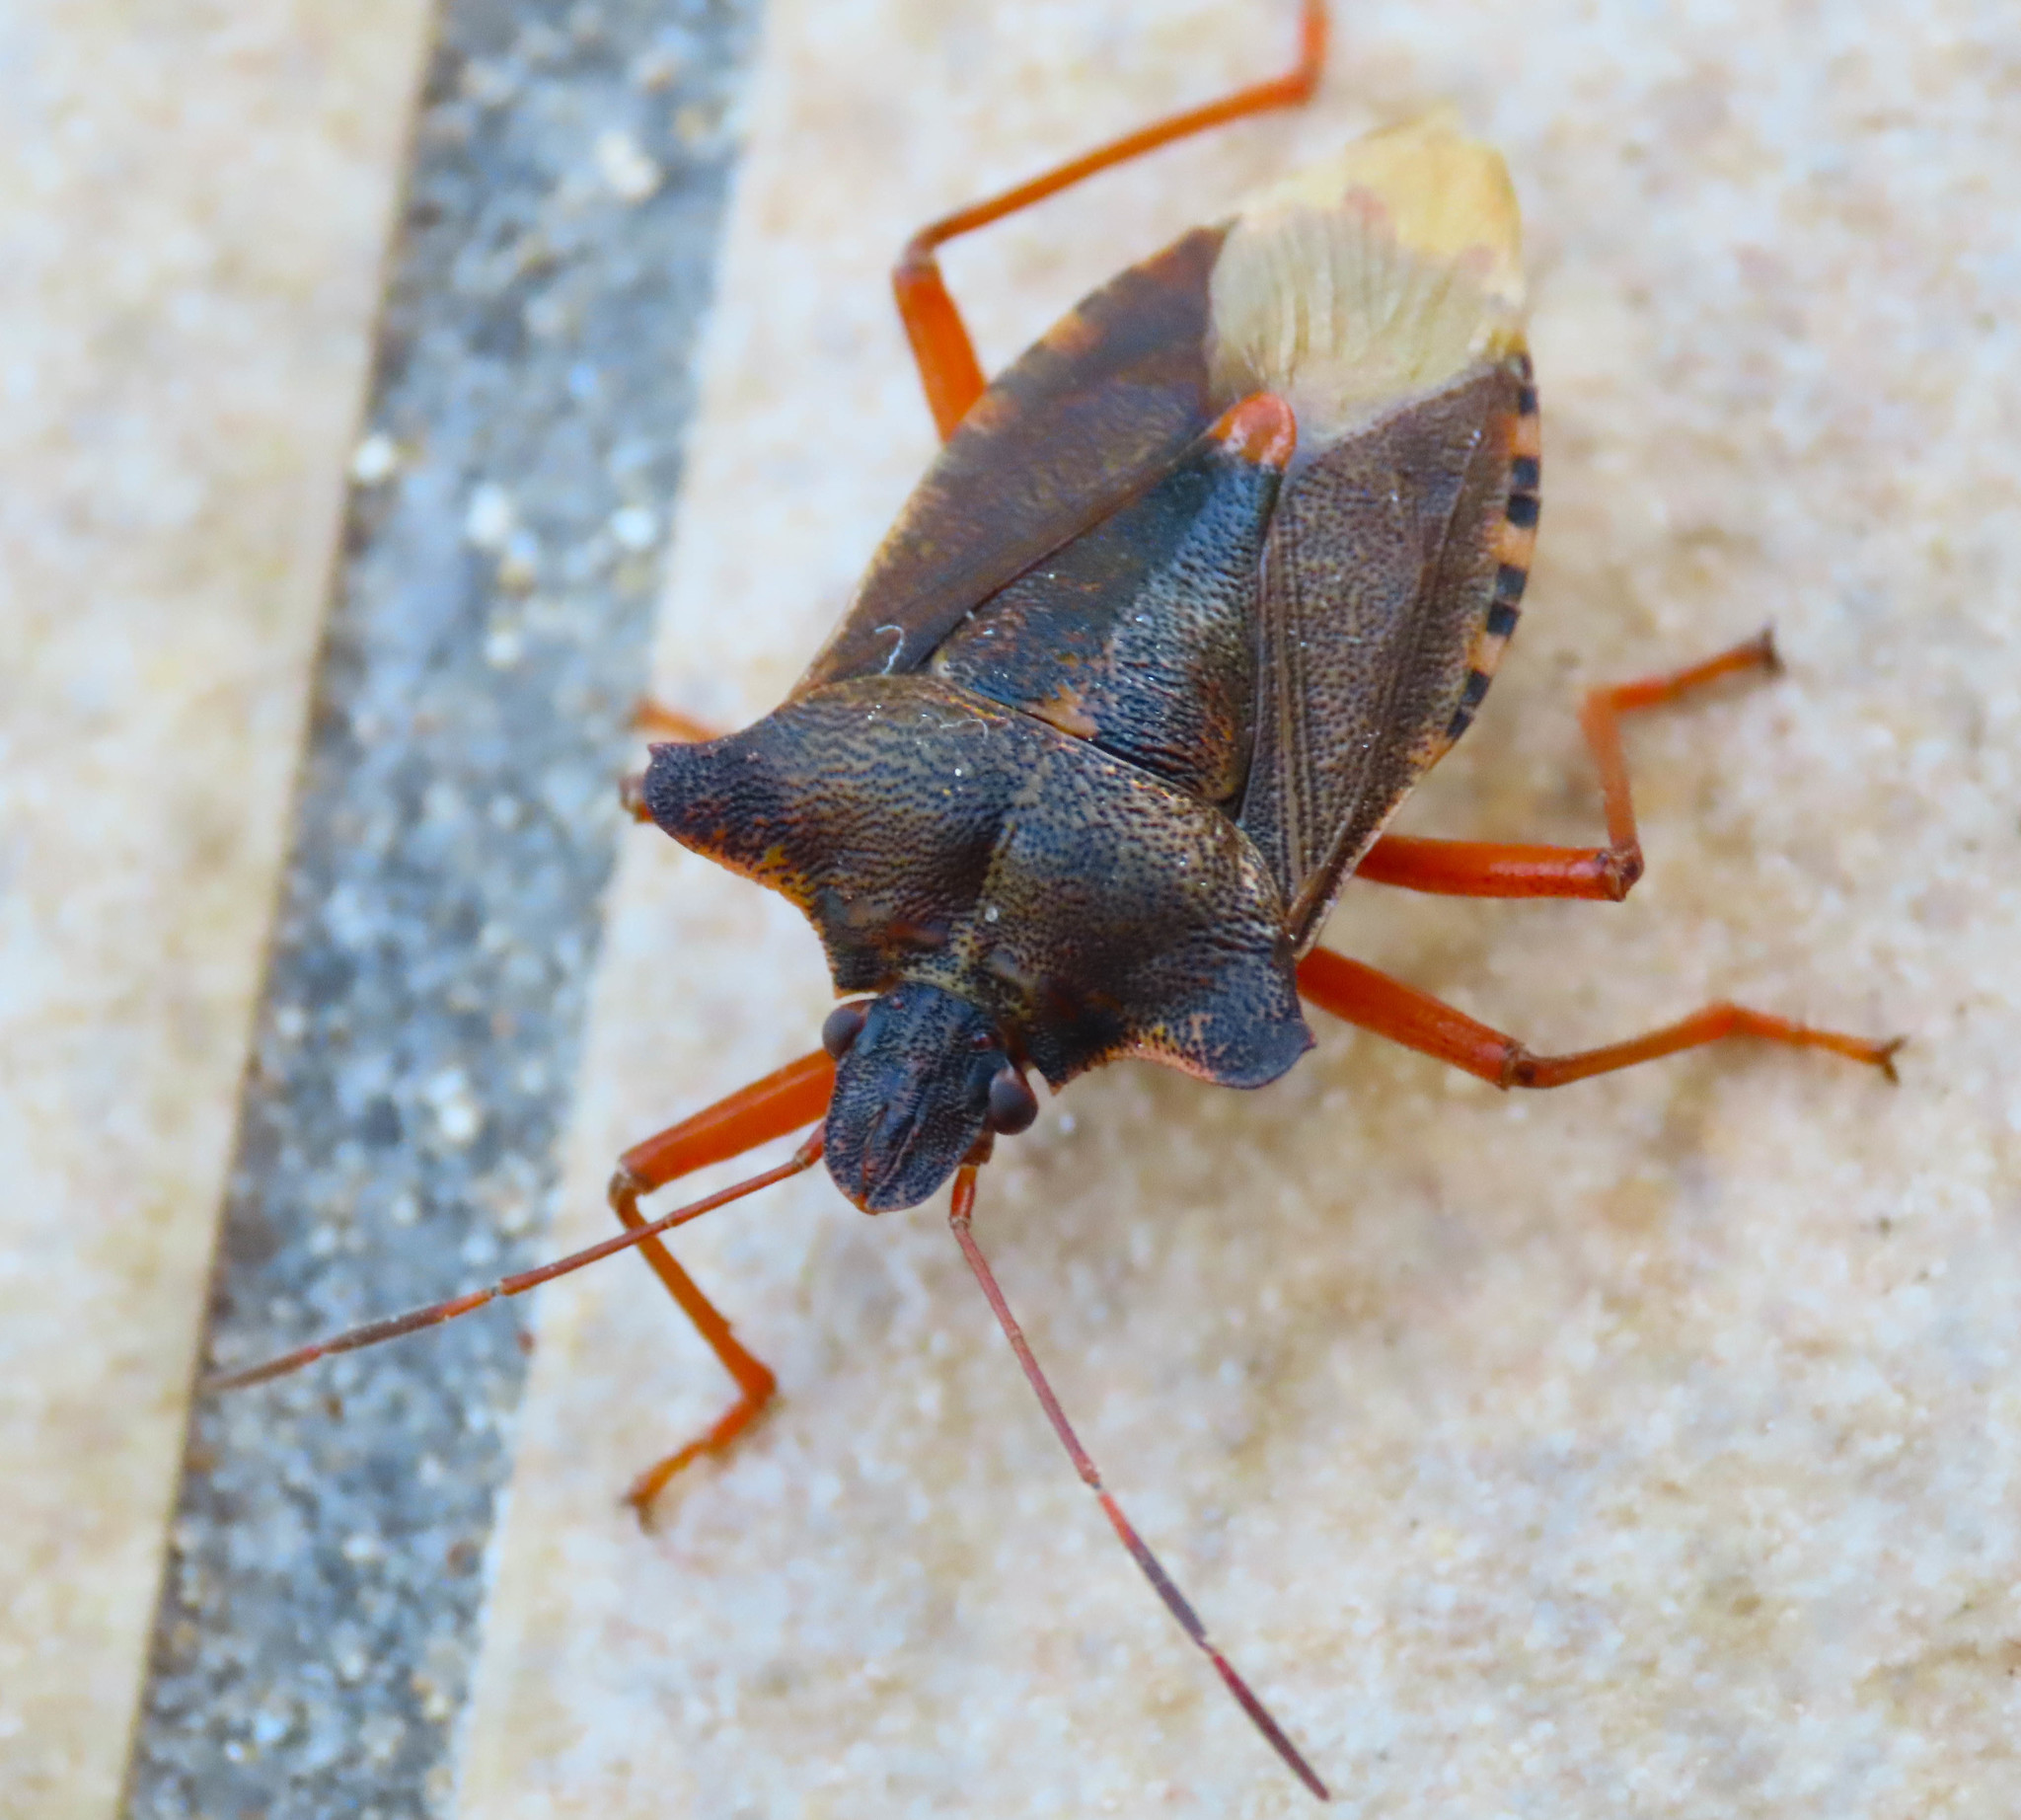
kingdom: Animalia
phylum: Arthropoda
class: Insecta
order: Hemiptera
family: Pentatomidae
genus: Pentatoma
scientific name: Pentatoma rufipes
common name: Forest bug
